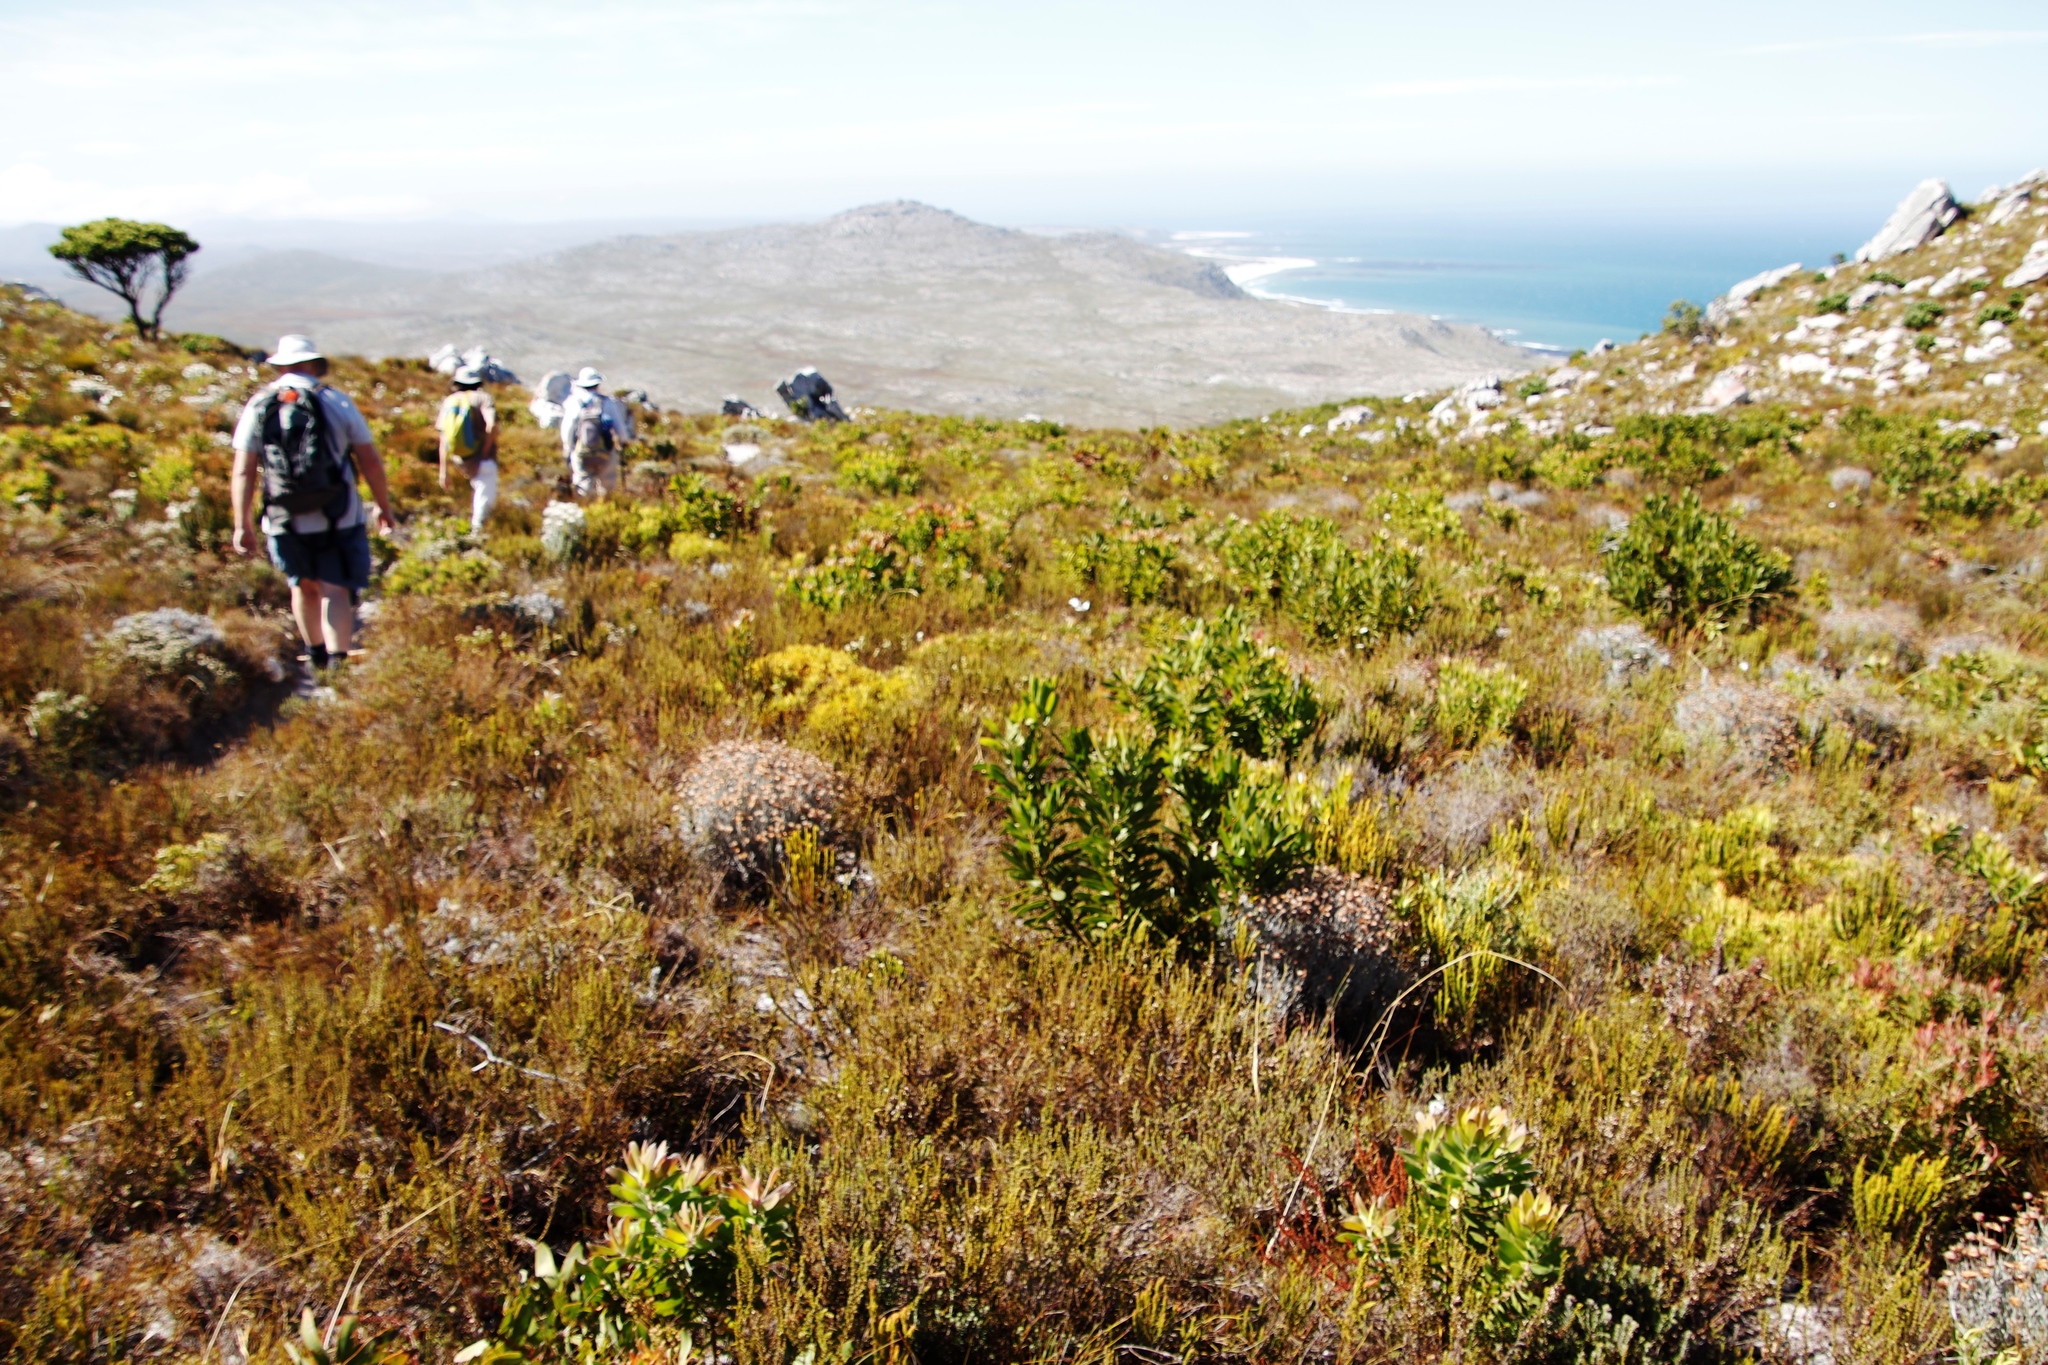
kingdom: Plantae
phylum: Tracheophyta
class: Magnoliopsida
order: Proteales
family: Proteaceae
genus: Leucadendron
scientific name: Leucadendron laureolum
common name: Golden sunshinebush
